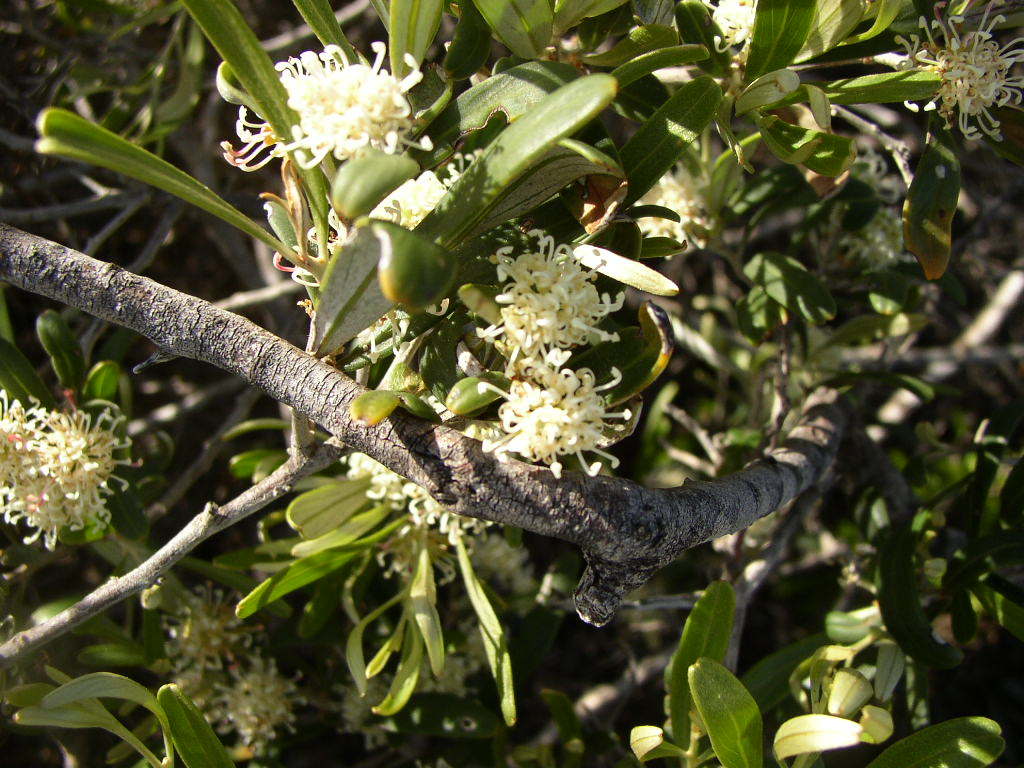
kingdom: Plantae
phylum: Tracheophyta
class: Magnoliopsida
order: Proteales
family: Proteaceae
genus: Grevillea
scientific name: Grevillea argyrophylla
